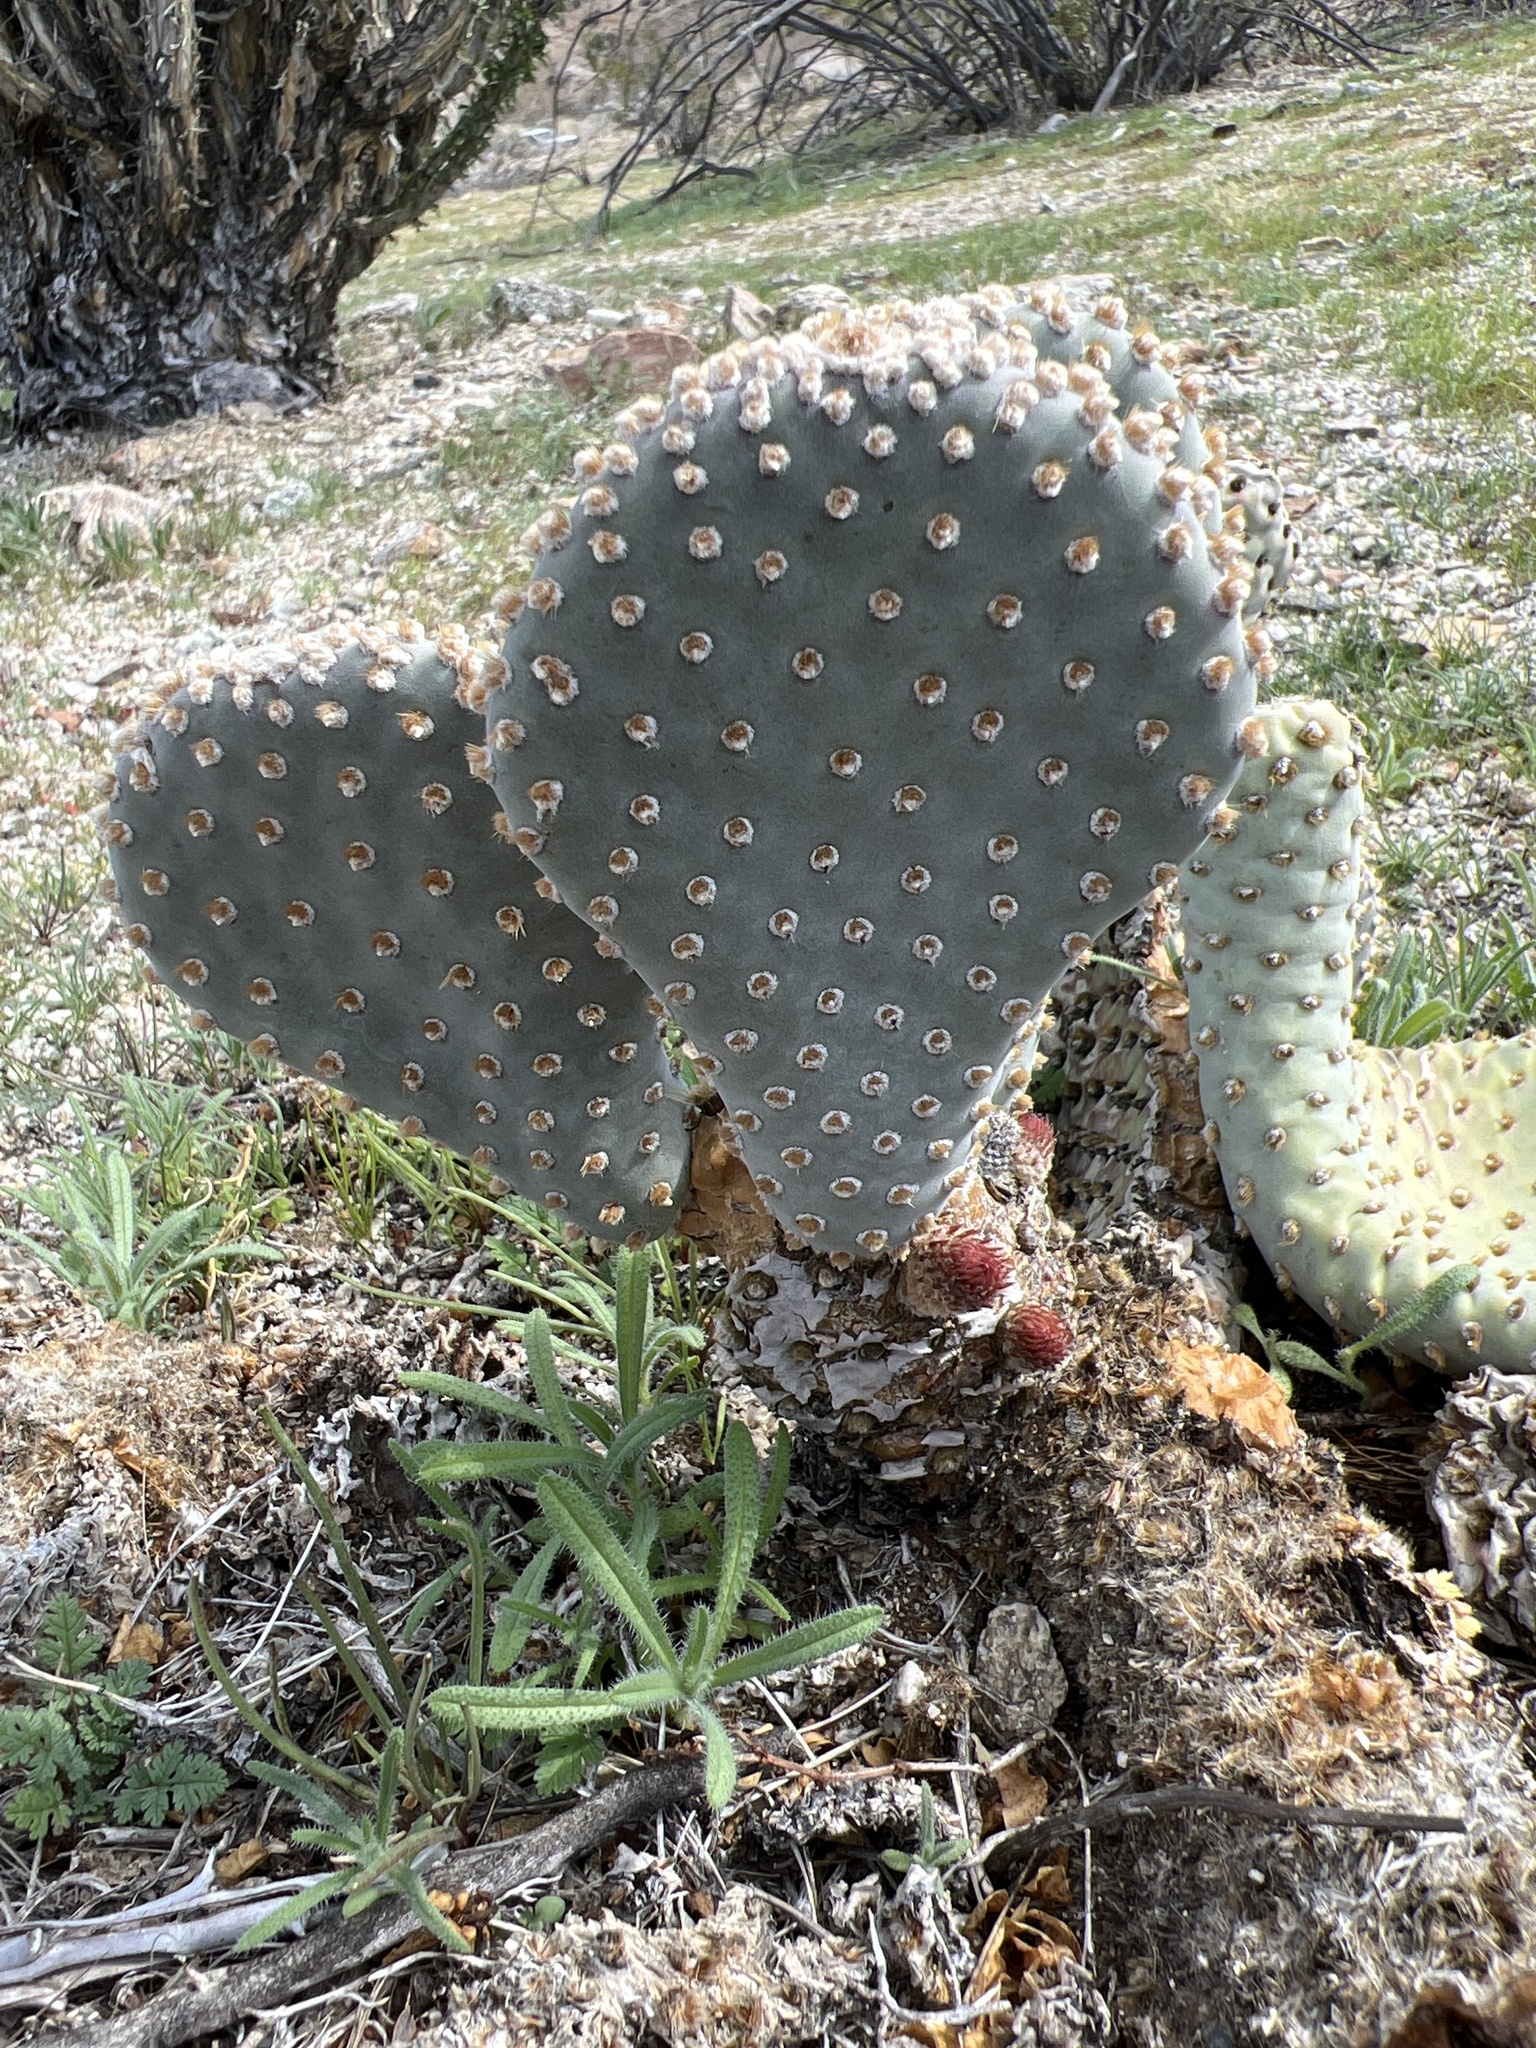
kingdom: Plantae
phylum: Tracheophyta
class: Magnoliopsida
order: Caryophyllales
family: Cactaceae
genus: Opuntia
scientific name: Opuntia basilaris
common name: Beavertail prickly-pear
